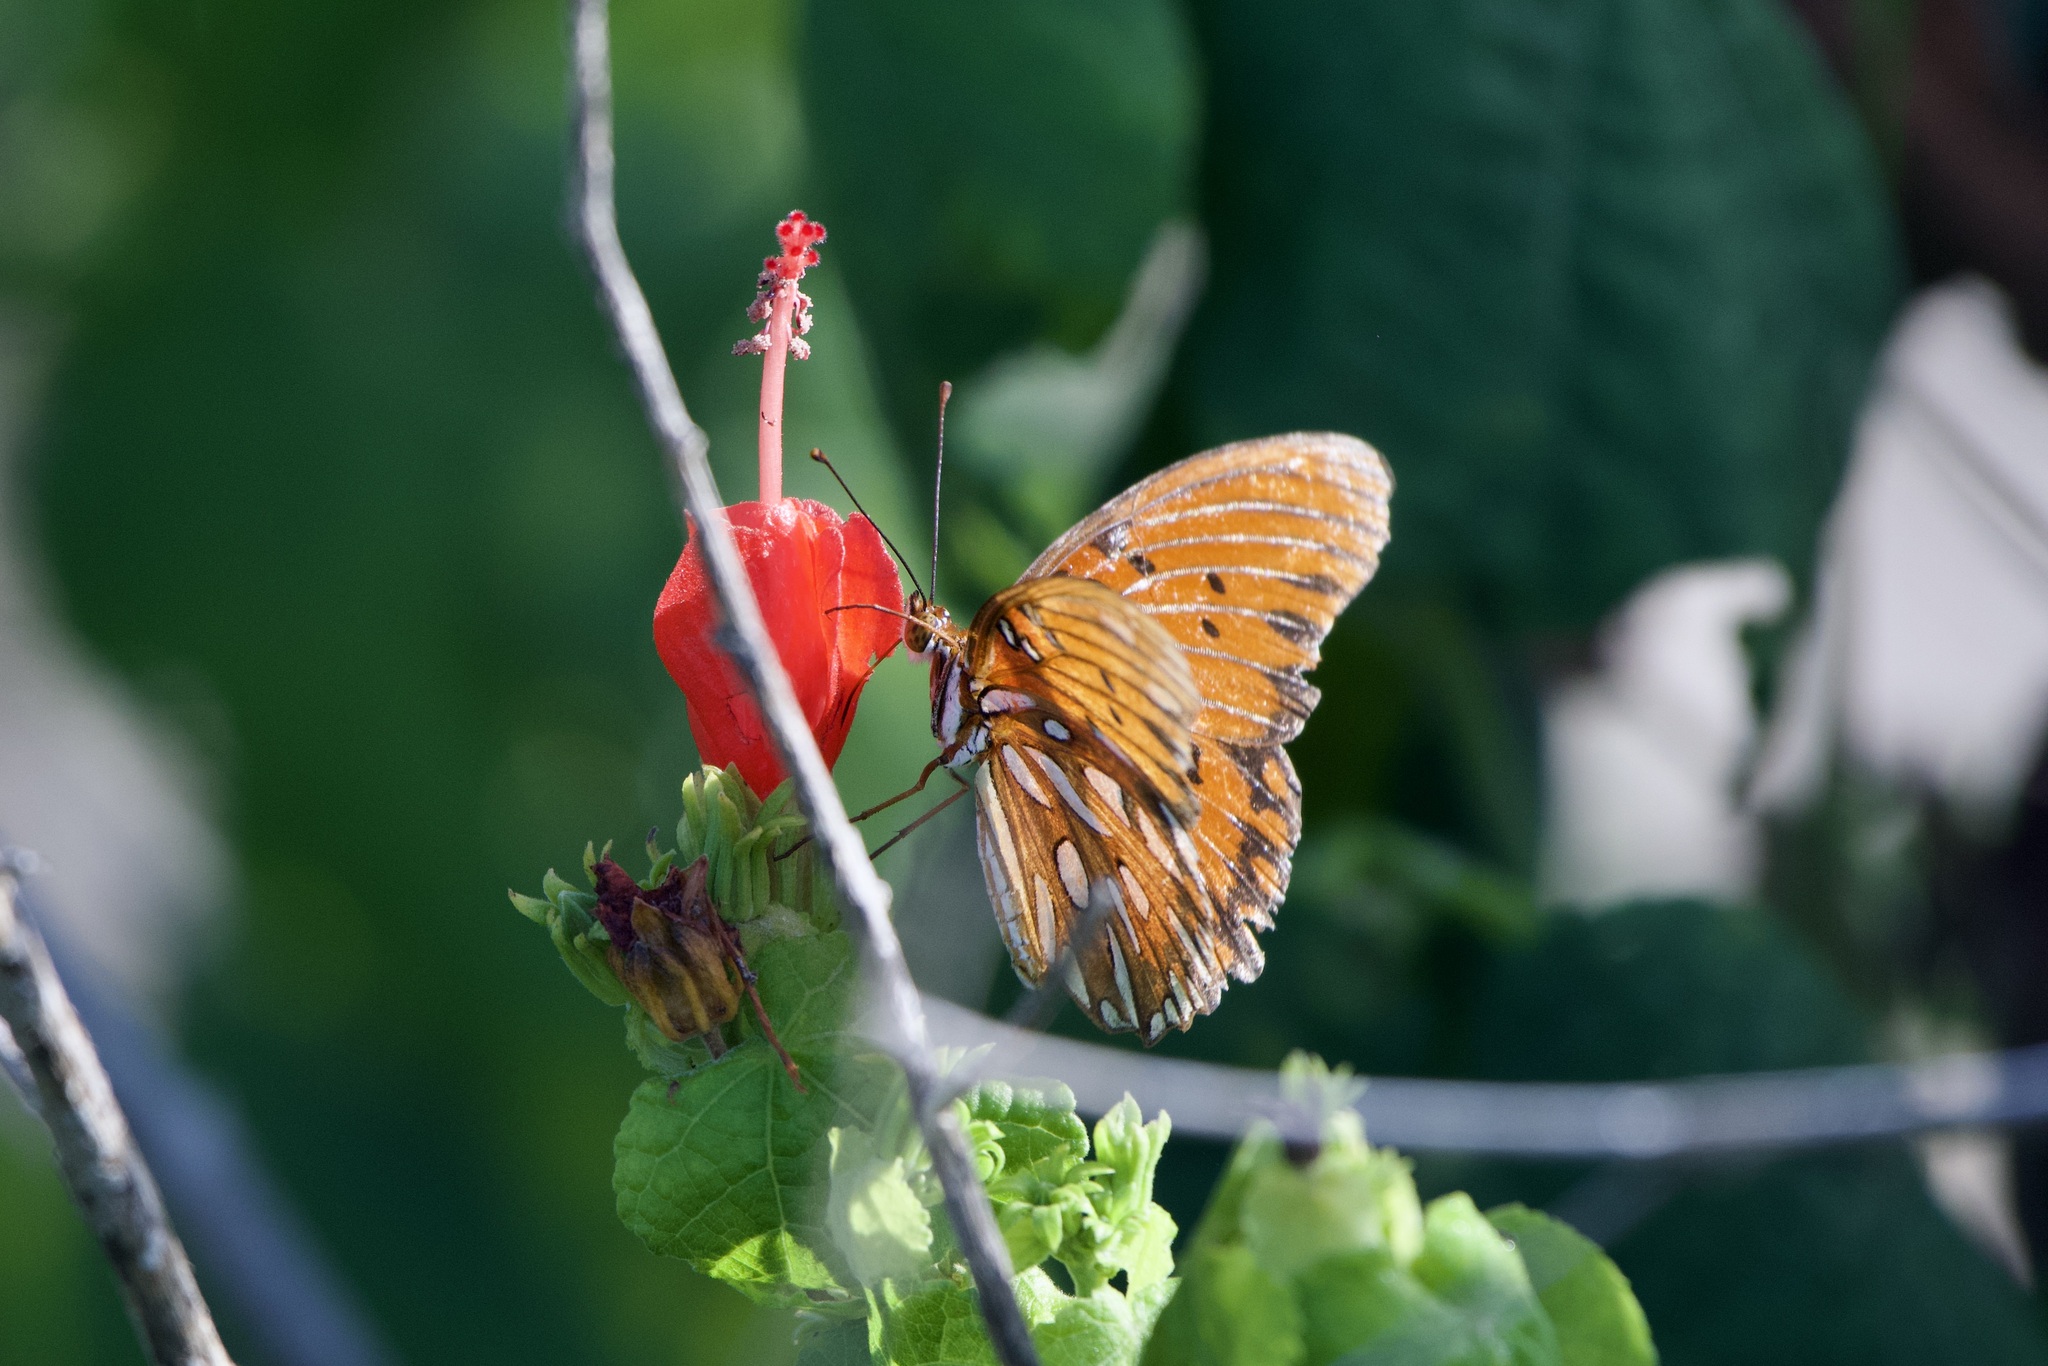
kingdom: Animalia
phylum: Arthropoda
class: Insecta
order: Lepidoptera
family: Nymphalidae
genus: Dione
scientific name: Dione vanillae
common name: Gulf fritillary
